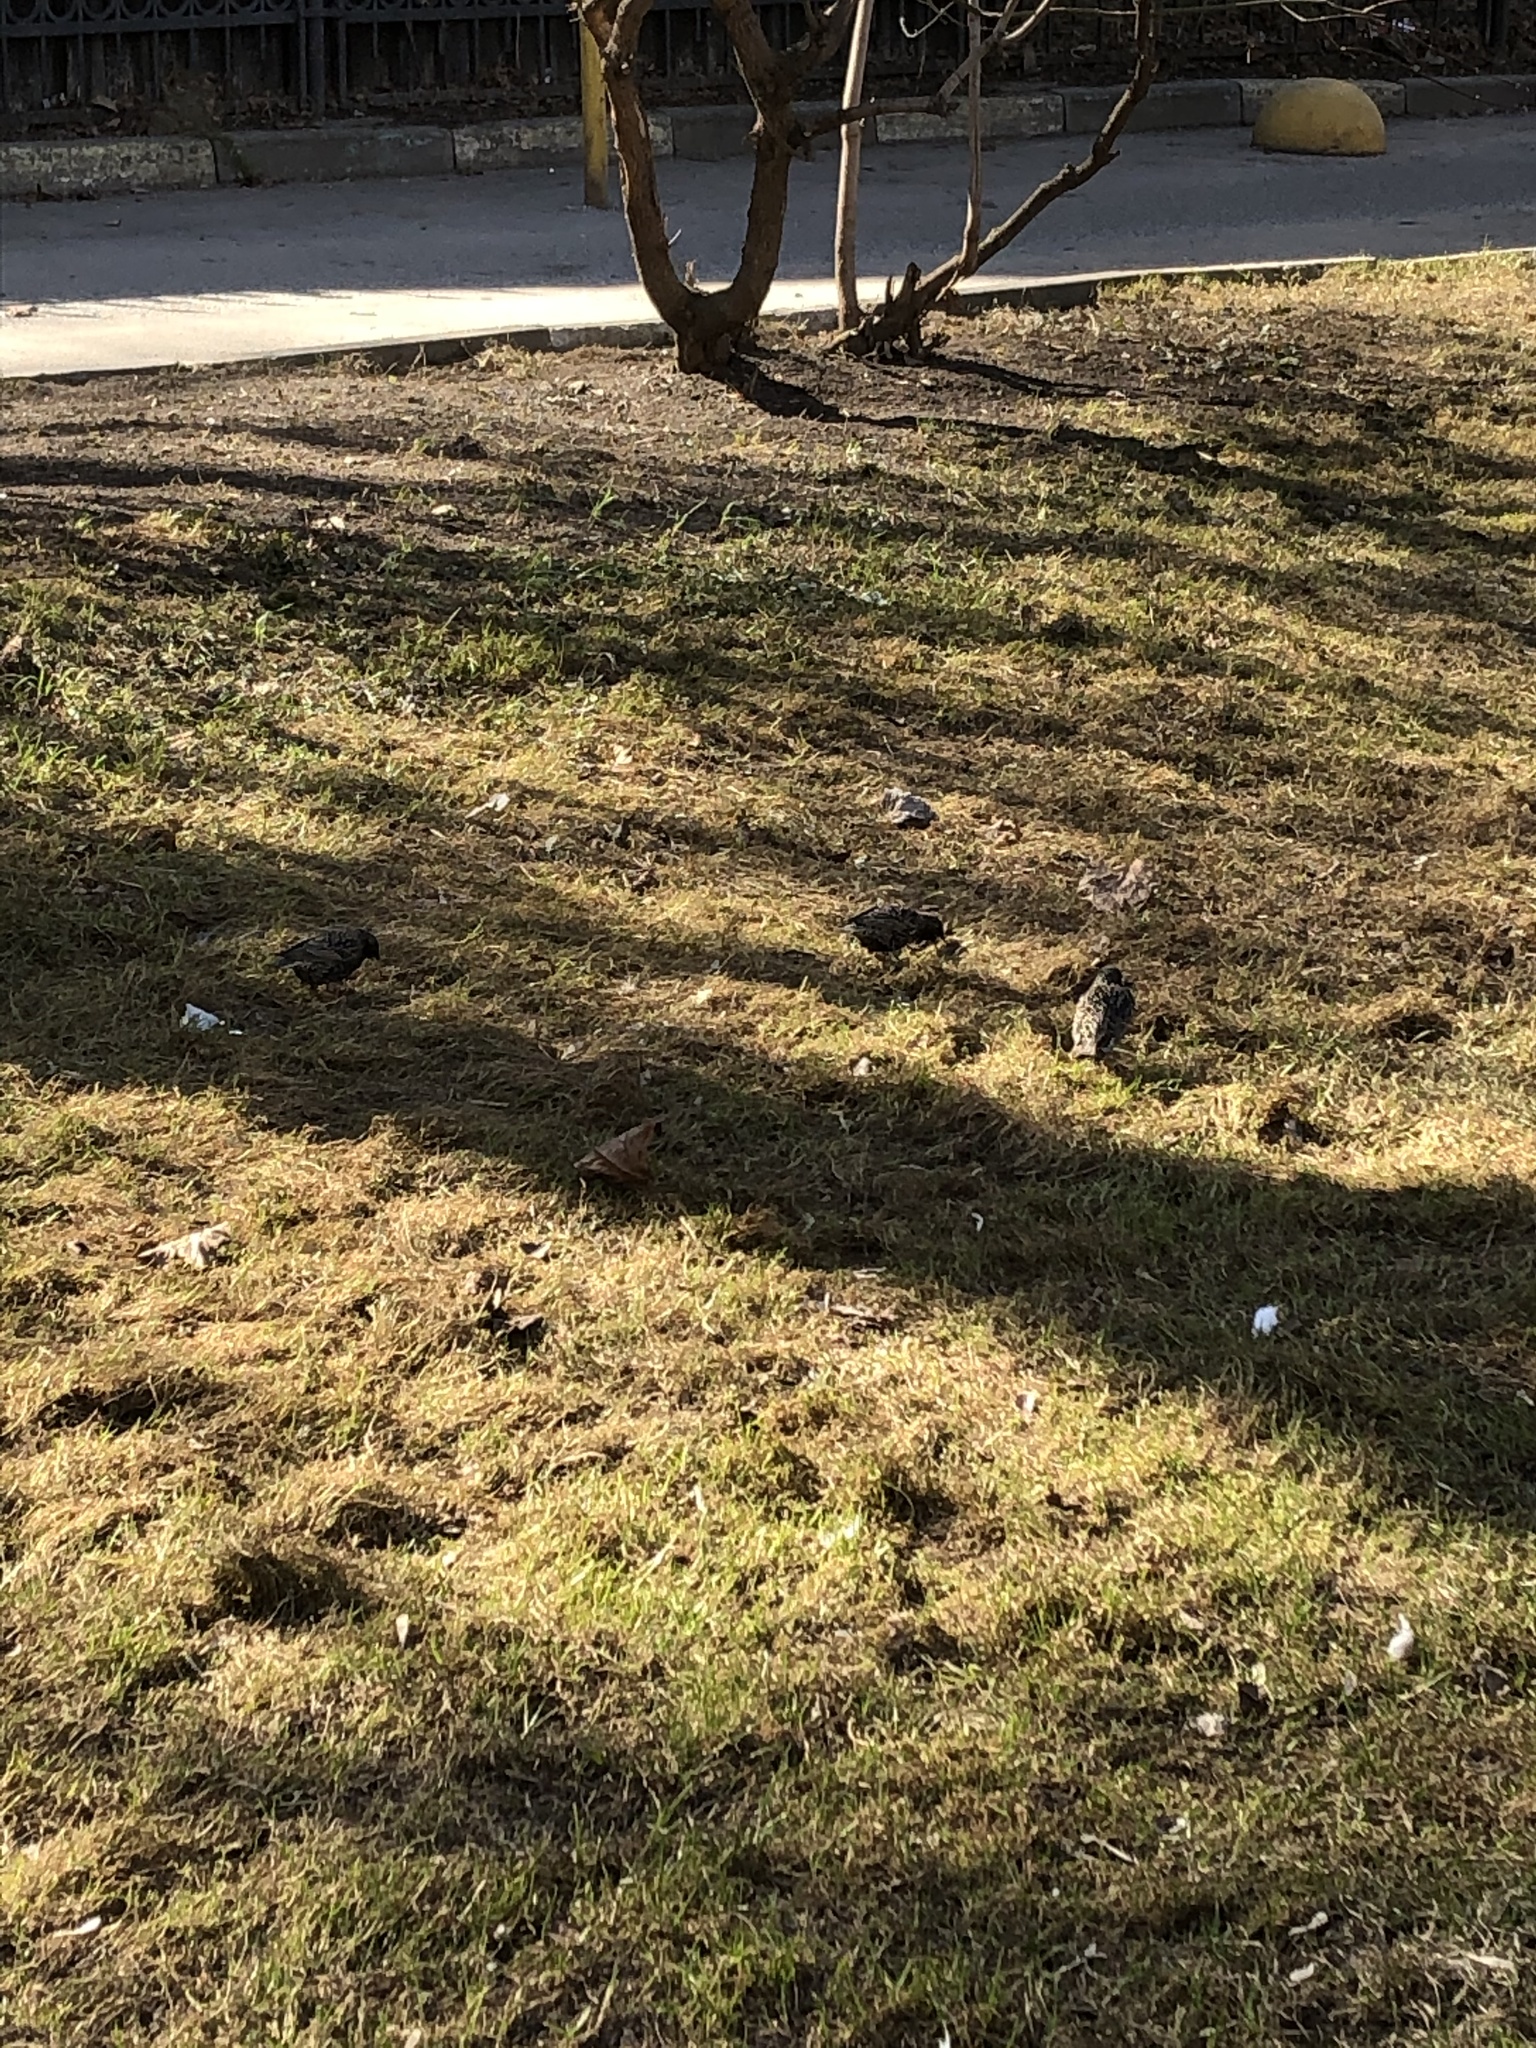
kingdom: Animalia
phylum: Chordata
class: Aves
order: Passeriformes
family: Sturnidae
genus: Sturnus
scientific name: Sturnus vulgaris
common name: Common starling
